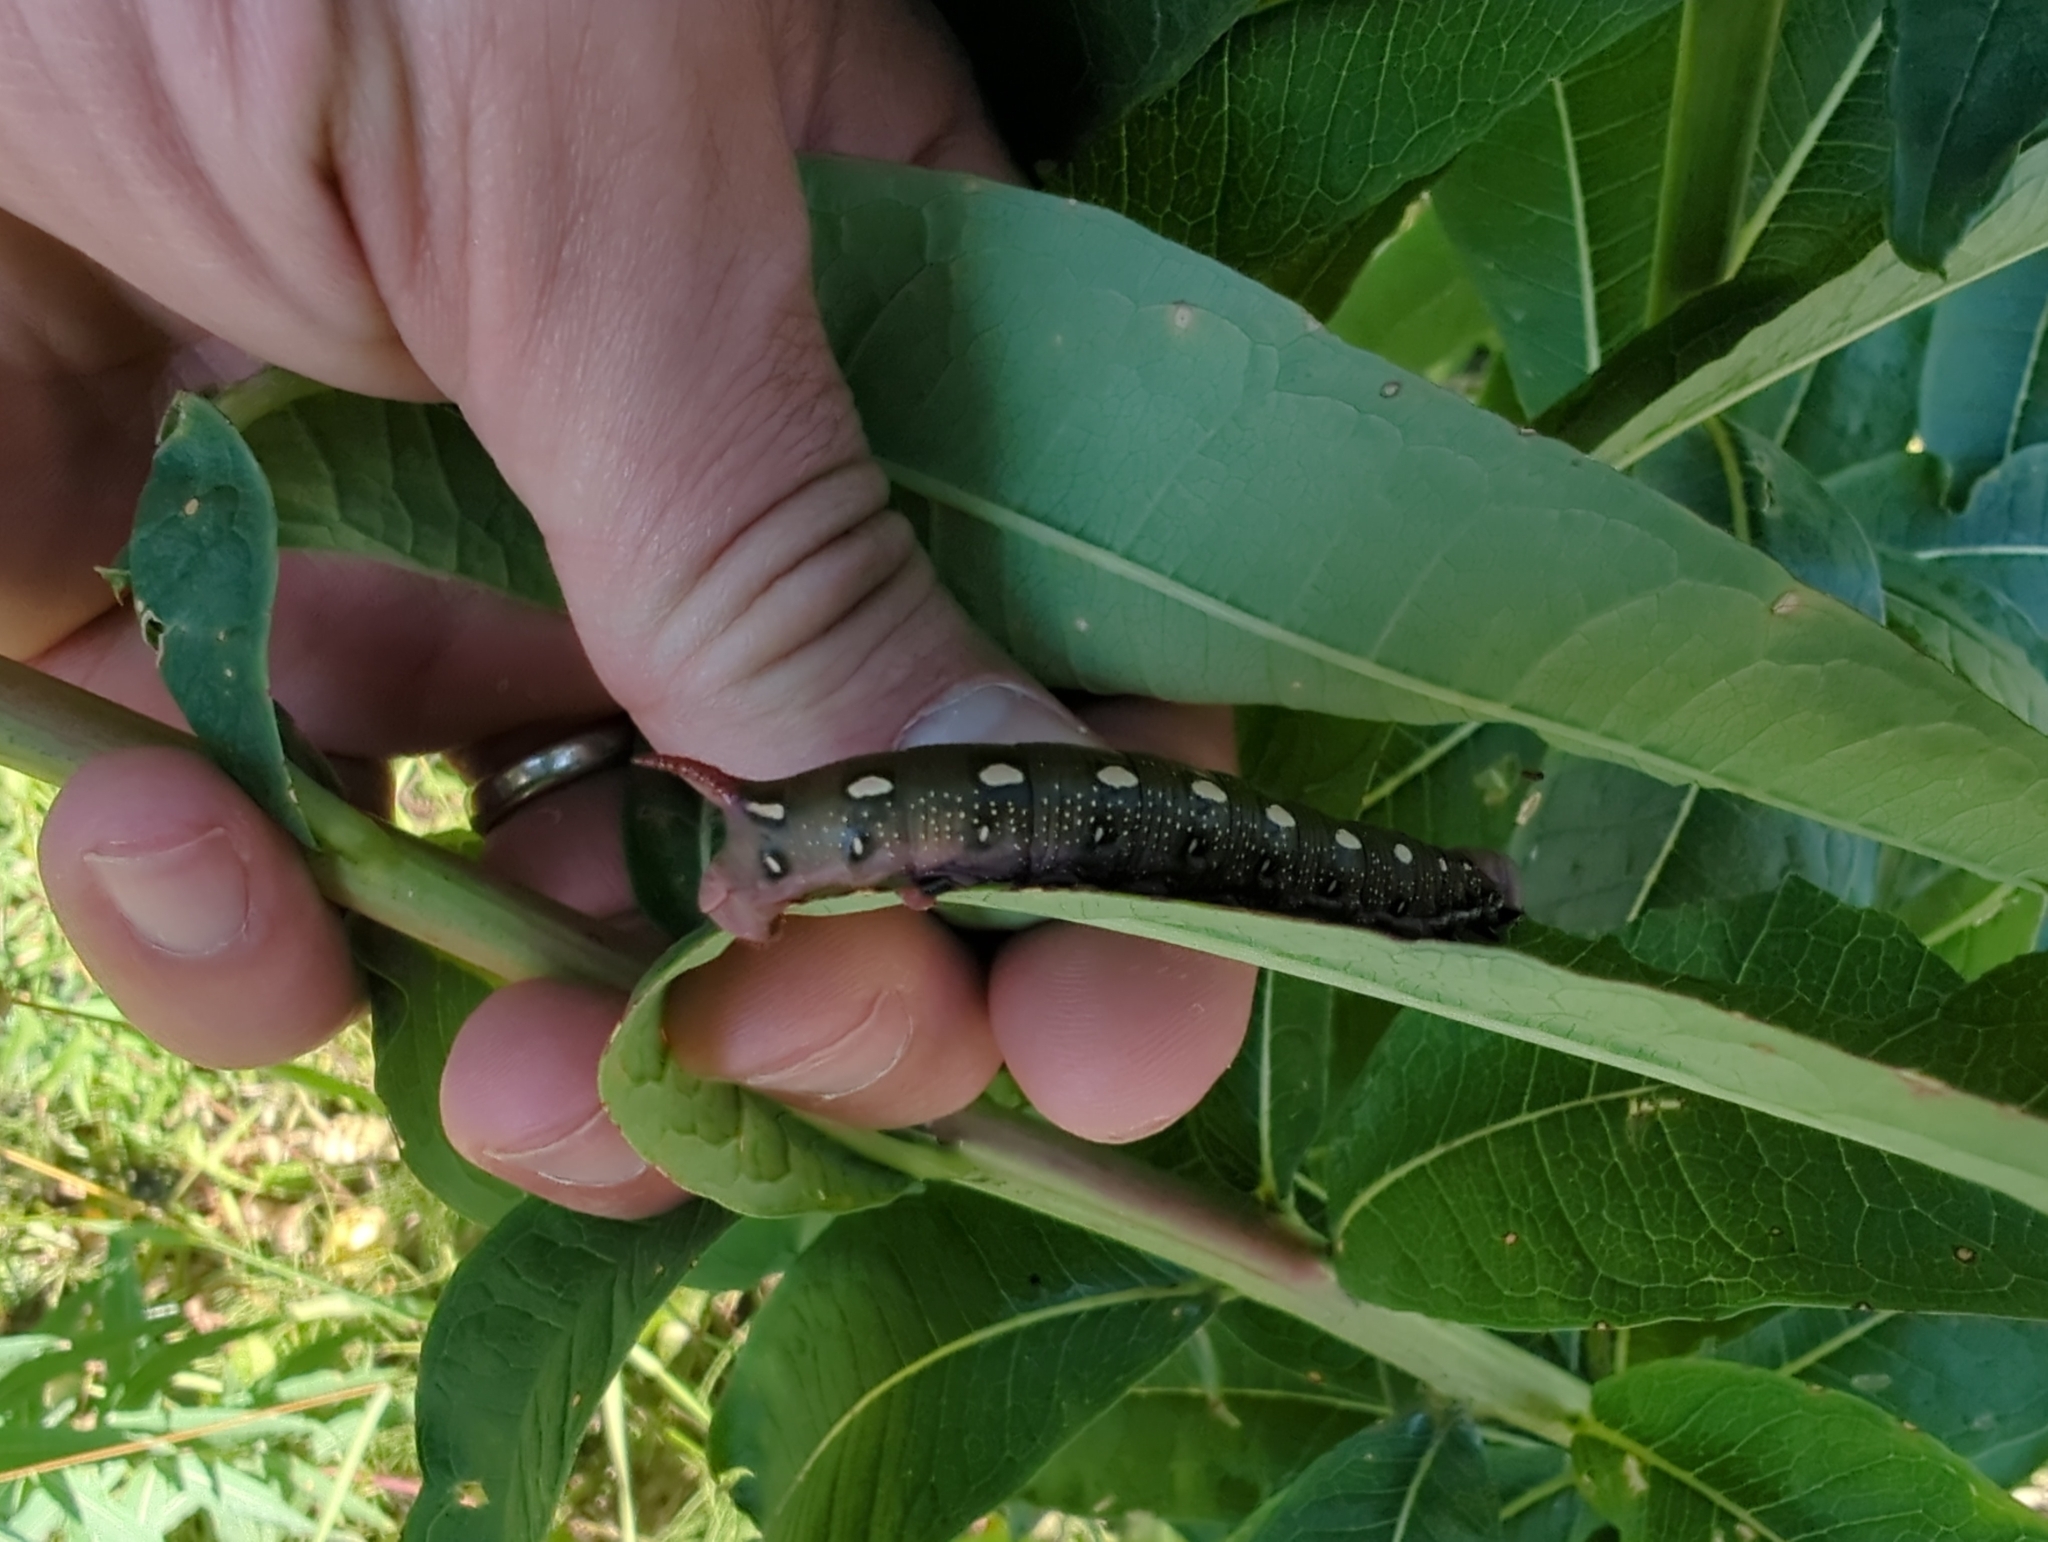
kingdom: Animalia
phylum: Arthropoda
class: Insecta
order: Lepidoptera
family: Sphingidae
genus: Hyles
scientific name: Hyles gallii
